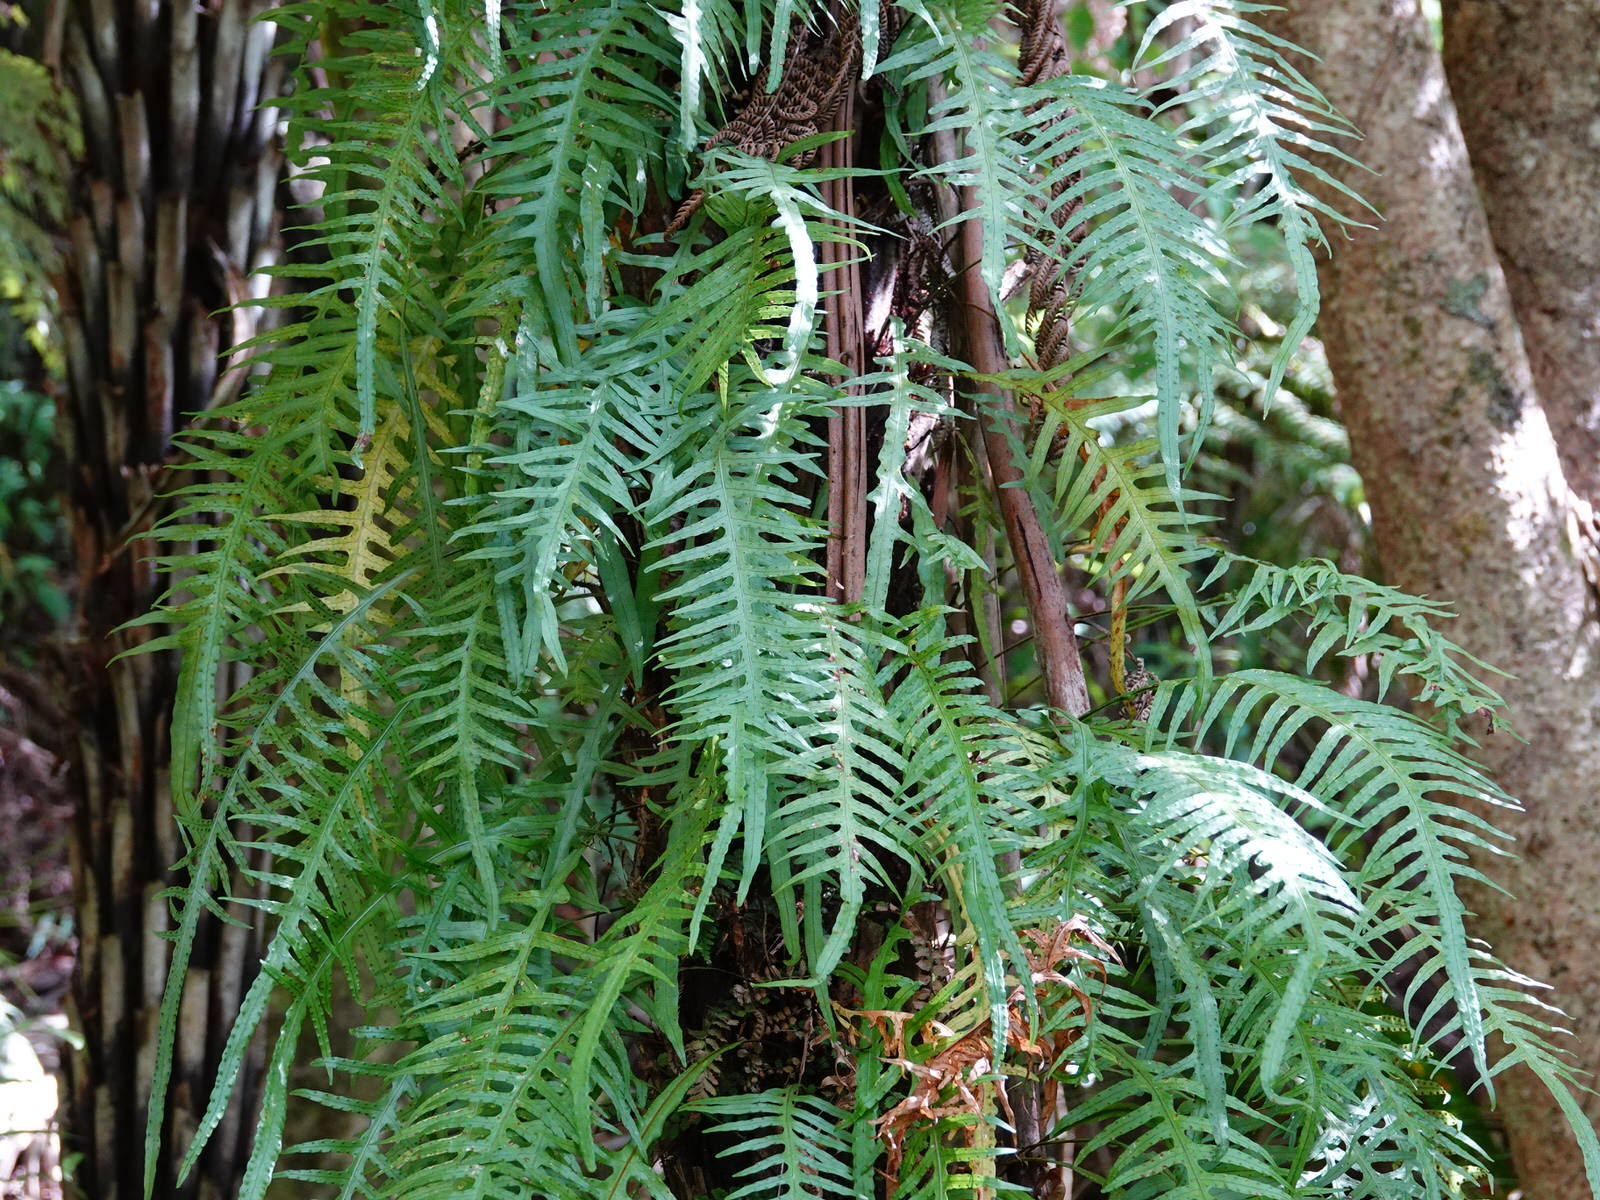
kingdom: Plantae
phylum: Tracheophyta
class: Polypodiopsida
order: Polypodiales
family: Polypodiaceae
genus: Lecanopteris
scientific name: Lecanopteris scandens
